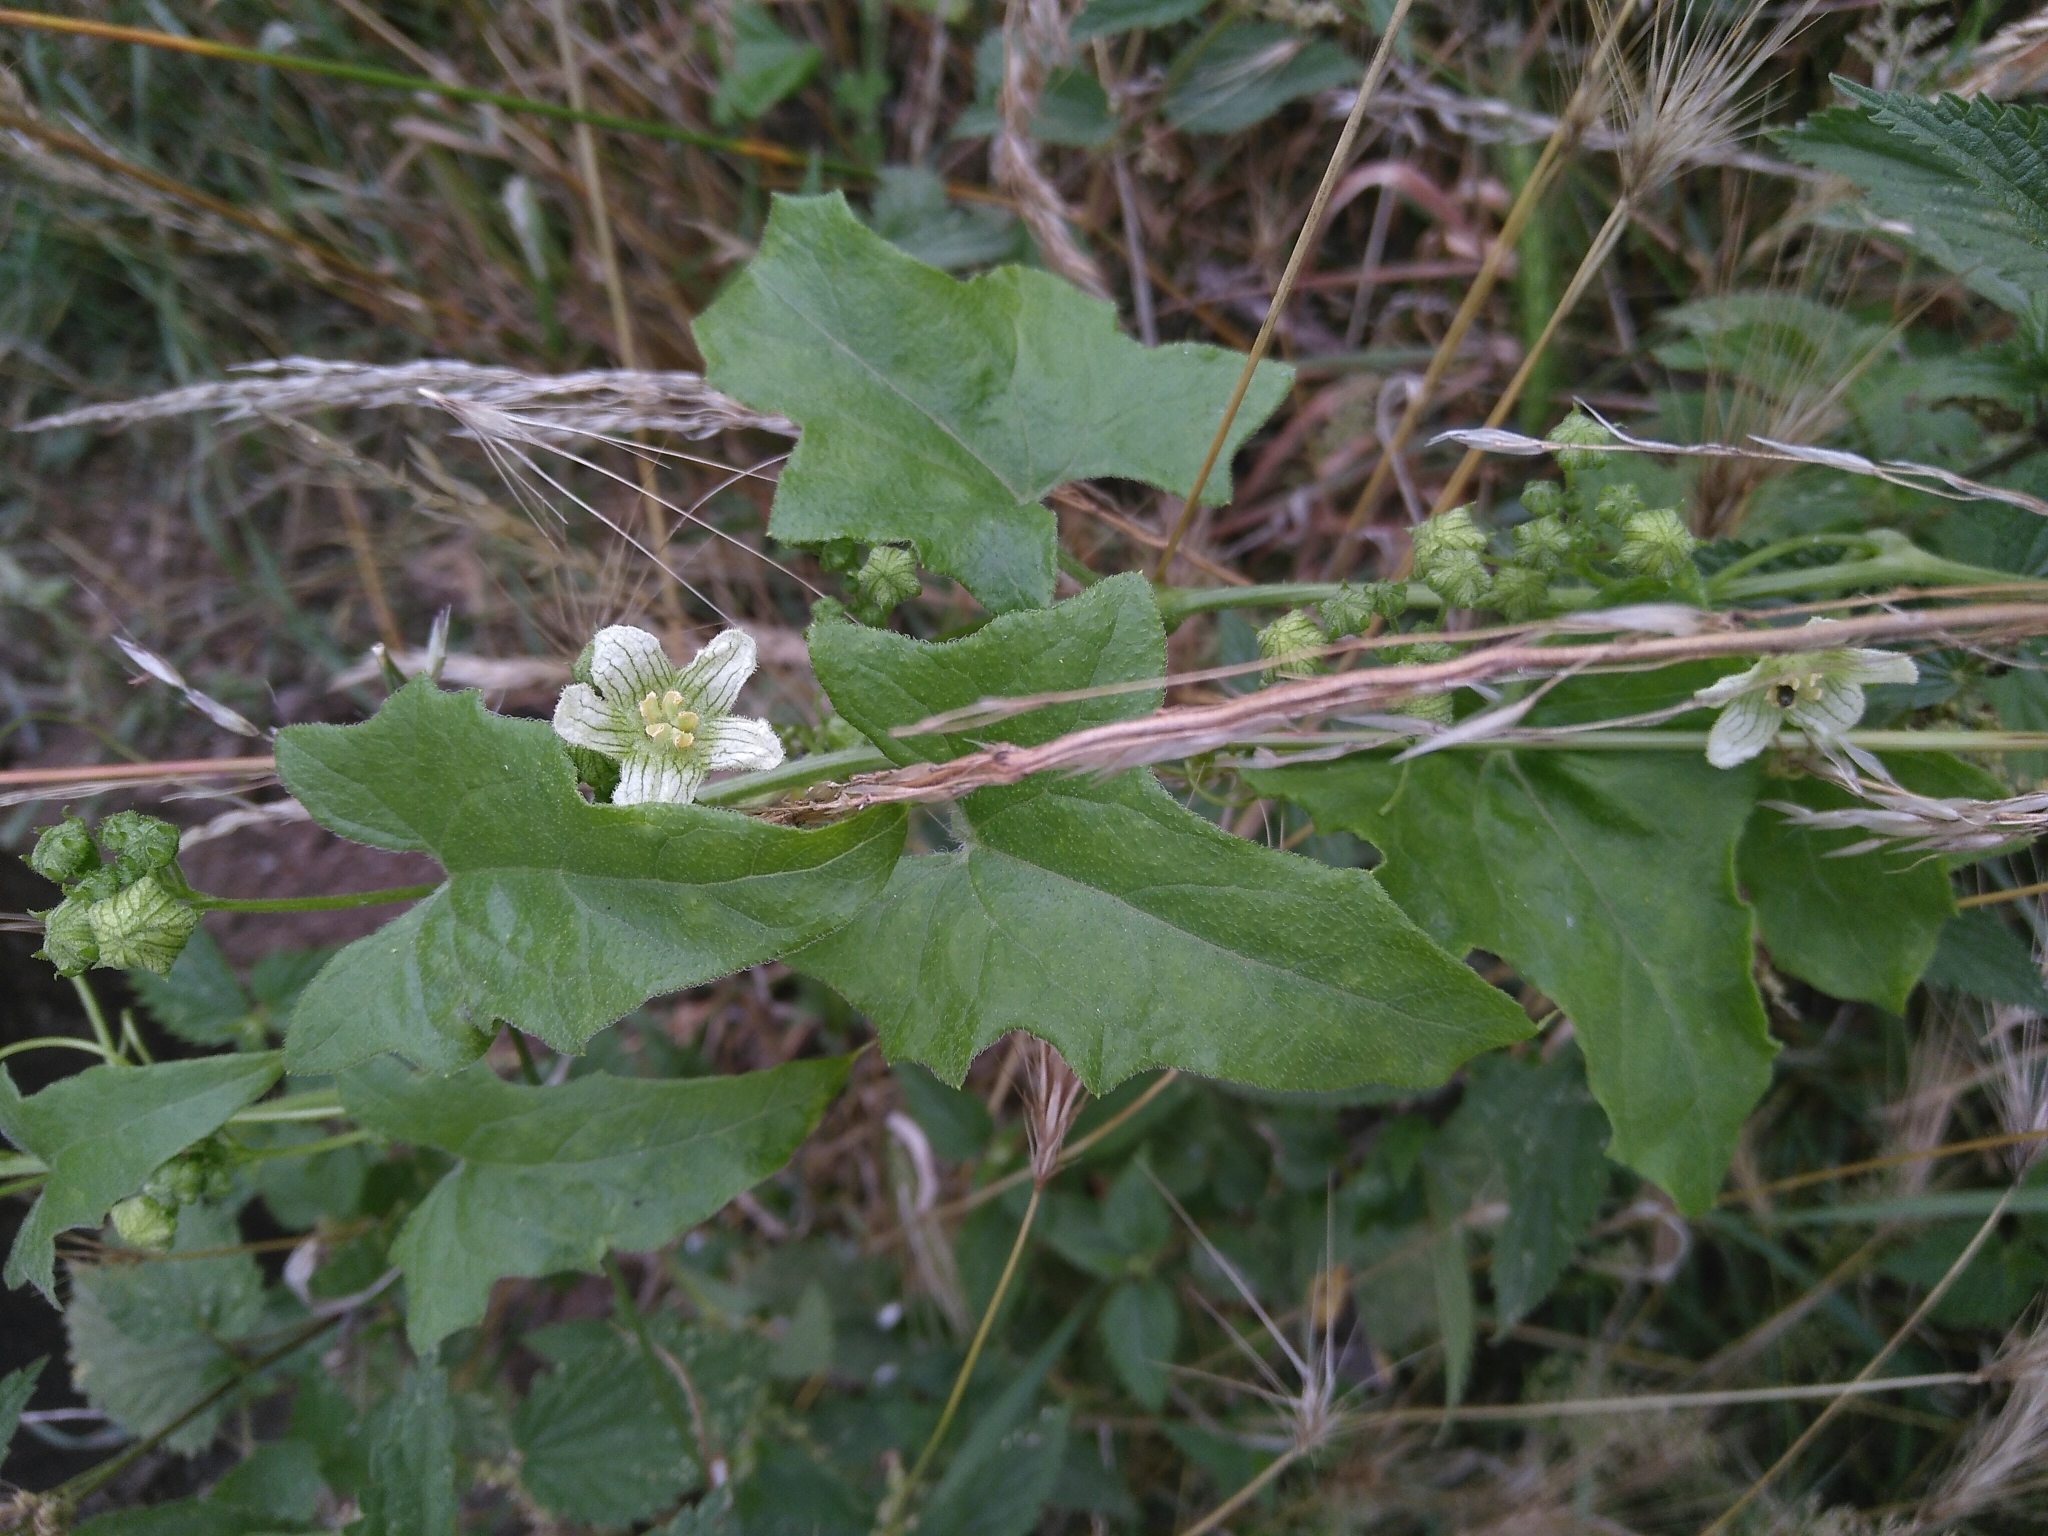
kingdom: Plantae
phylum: Tracheophyta
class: Magnoliopsida
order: Cucurbitales
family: Cucurbitaceae
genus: Bryonia
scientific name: Bryonia cretica
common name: Cretan bryony
